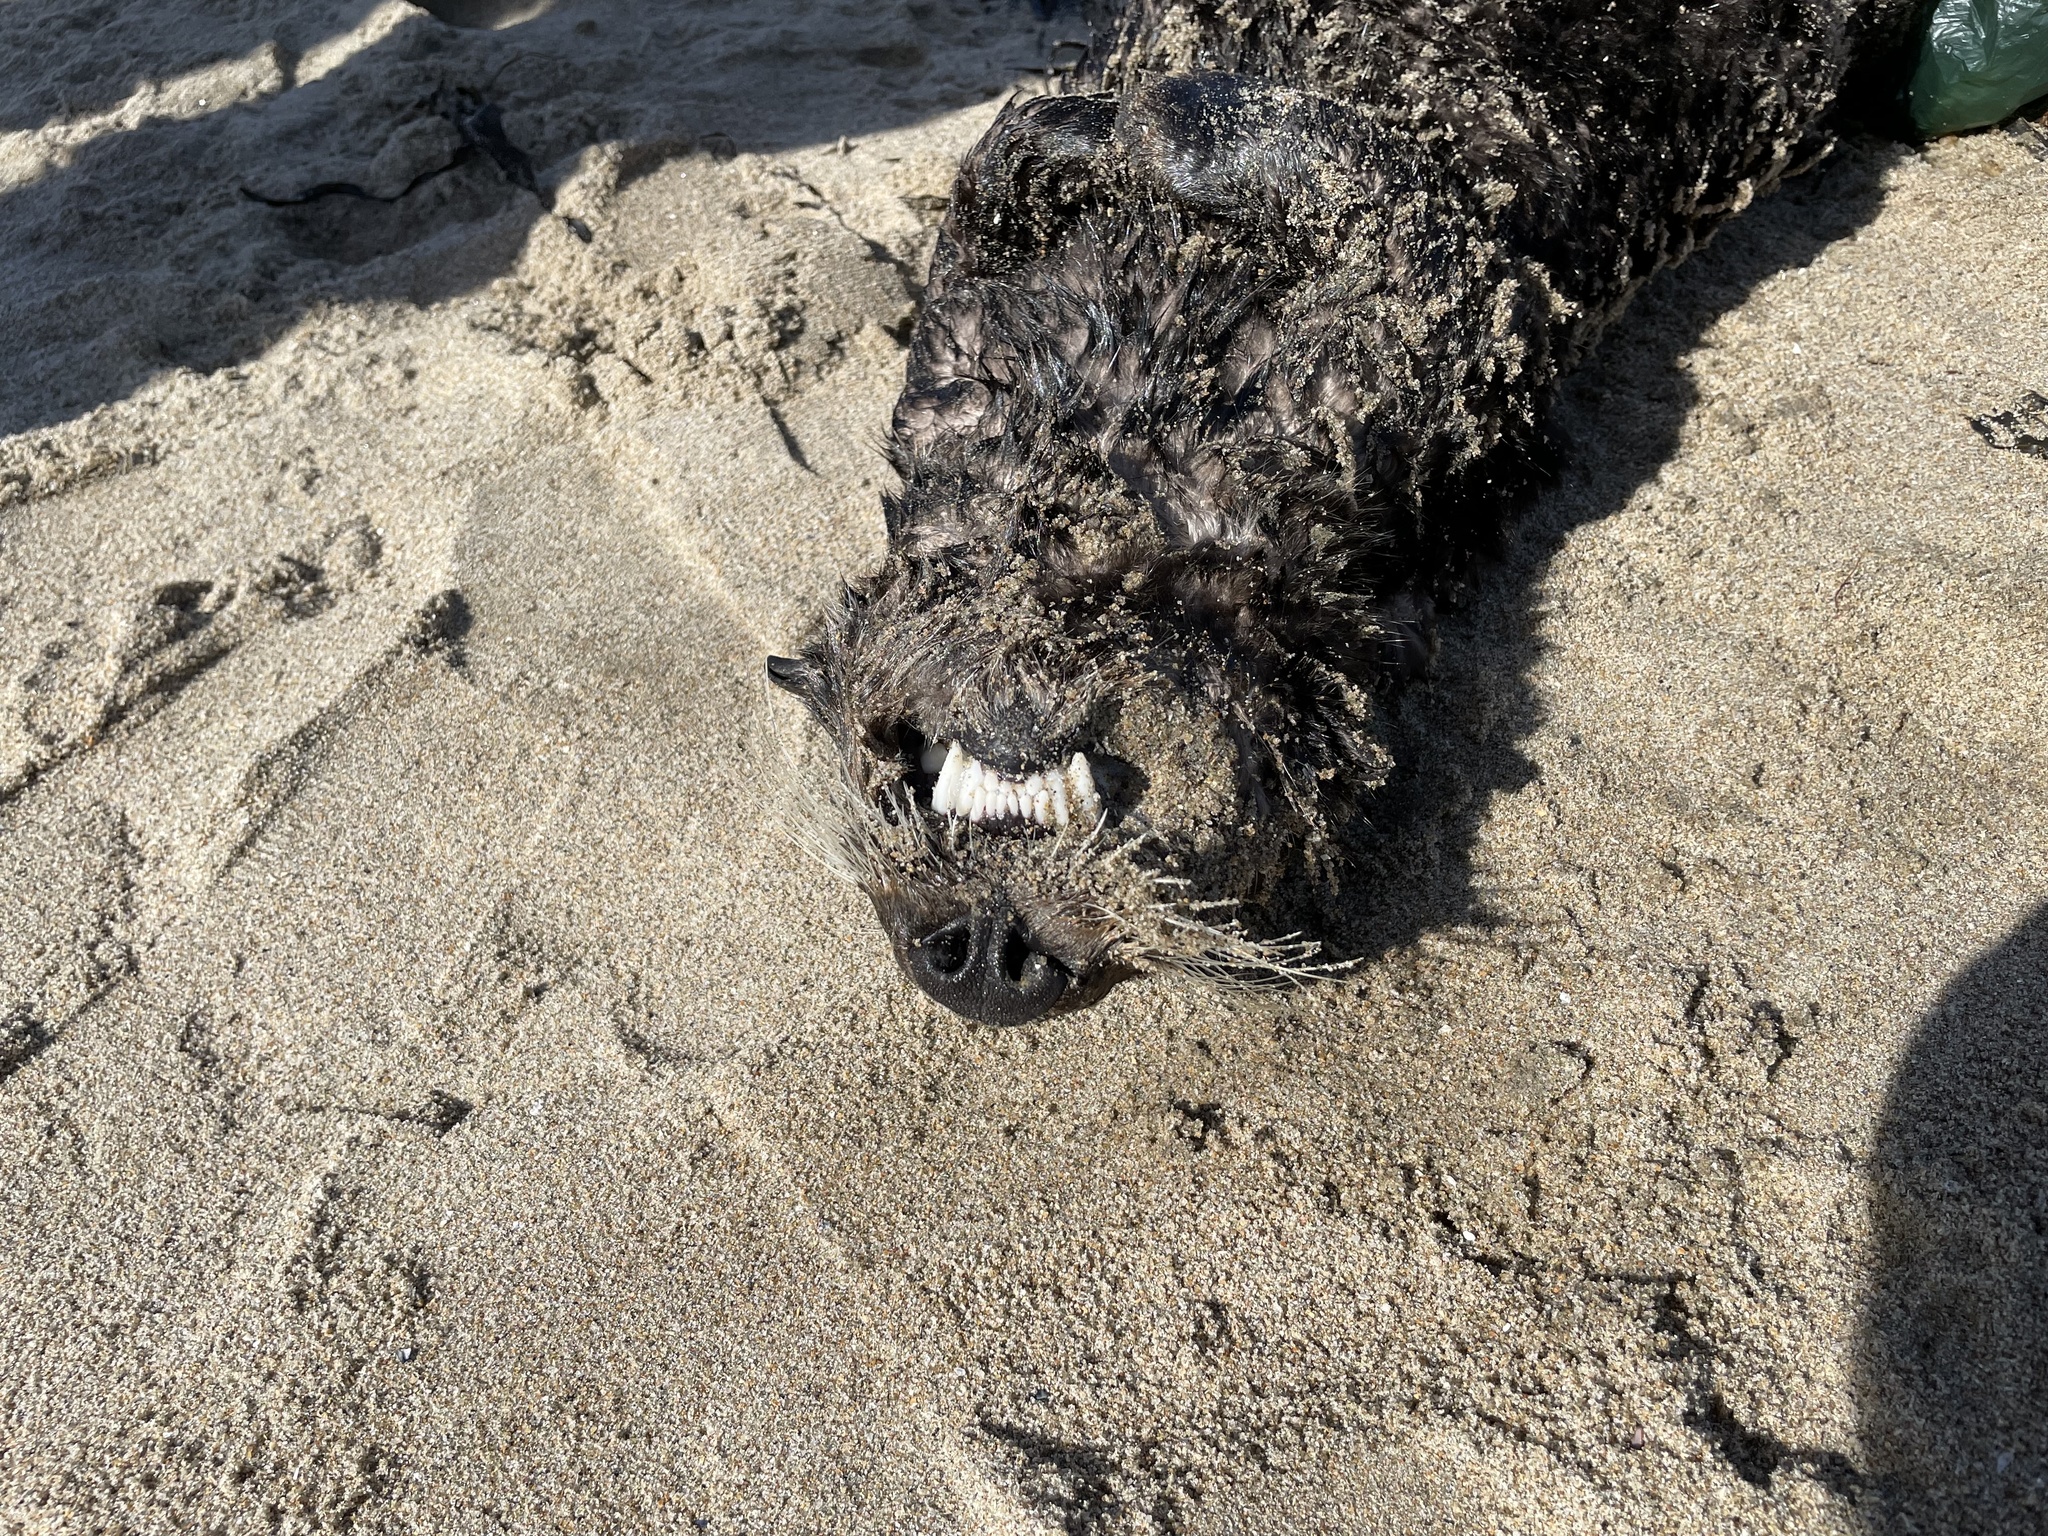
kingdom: Animalia
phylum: Chordata
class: Mammalia
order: Carnivora
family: Mustelidae
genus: Enhydra
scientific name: Enhydra lutris
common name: Sea otter
